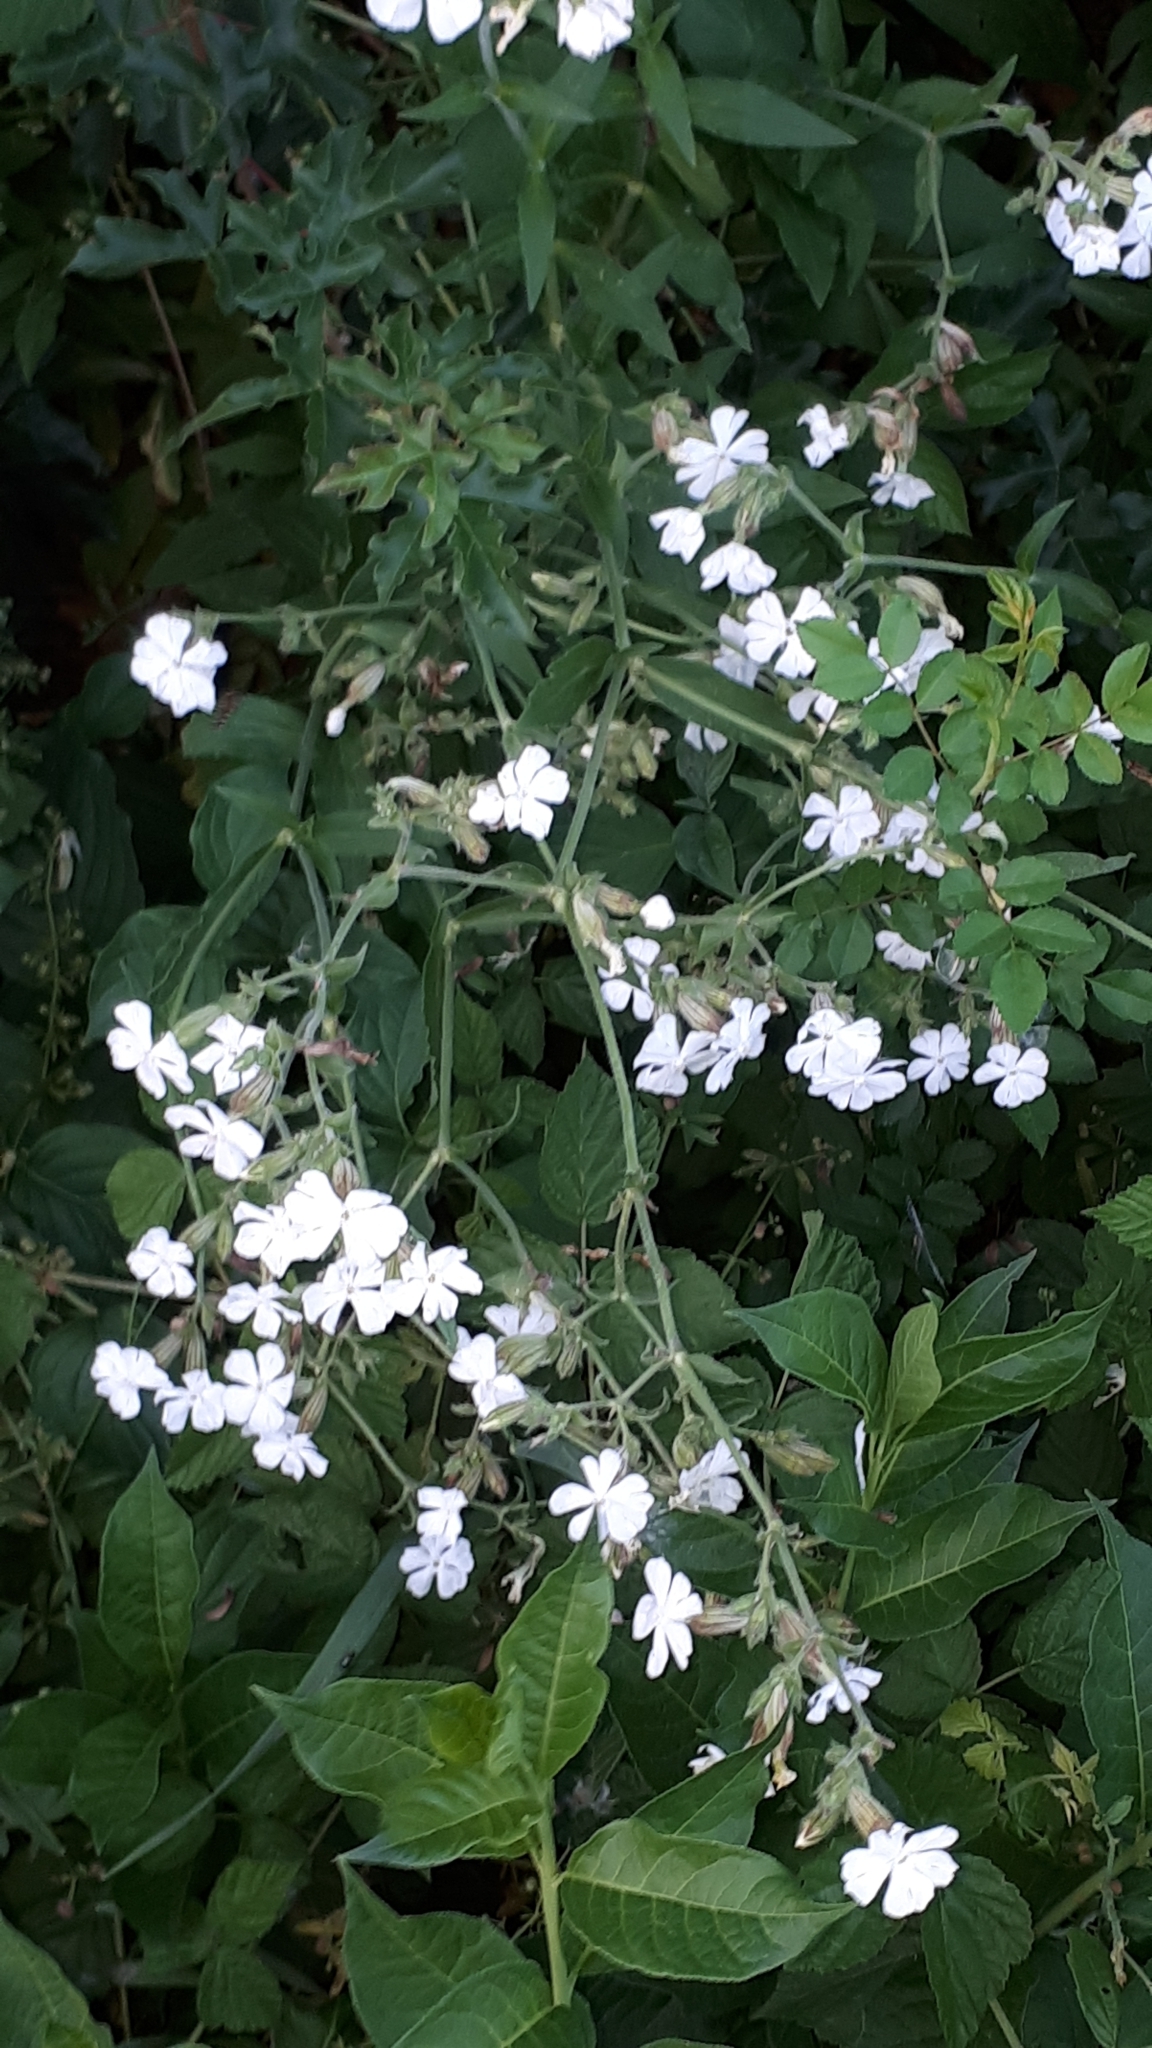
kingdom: Plantae
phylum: Tracheophyta
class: Magnoliopsida
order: Caryophyllales
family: Caryophyllaceae
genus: Silene
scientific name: Silene latifolia
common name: White campion
